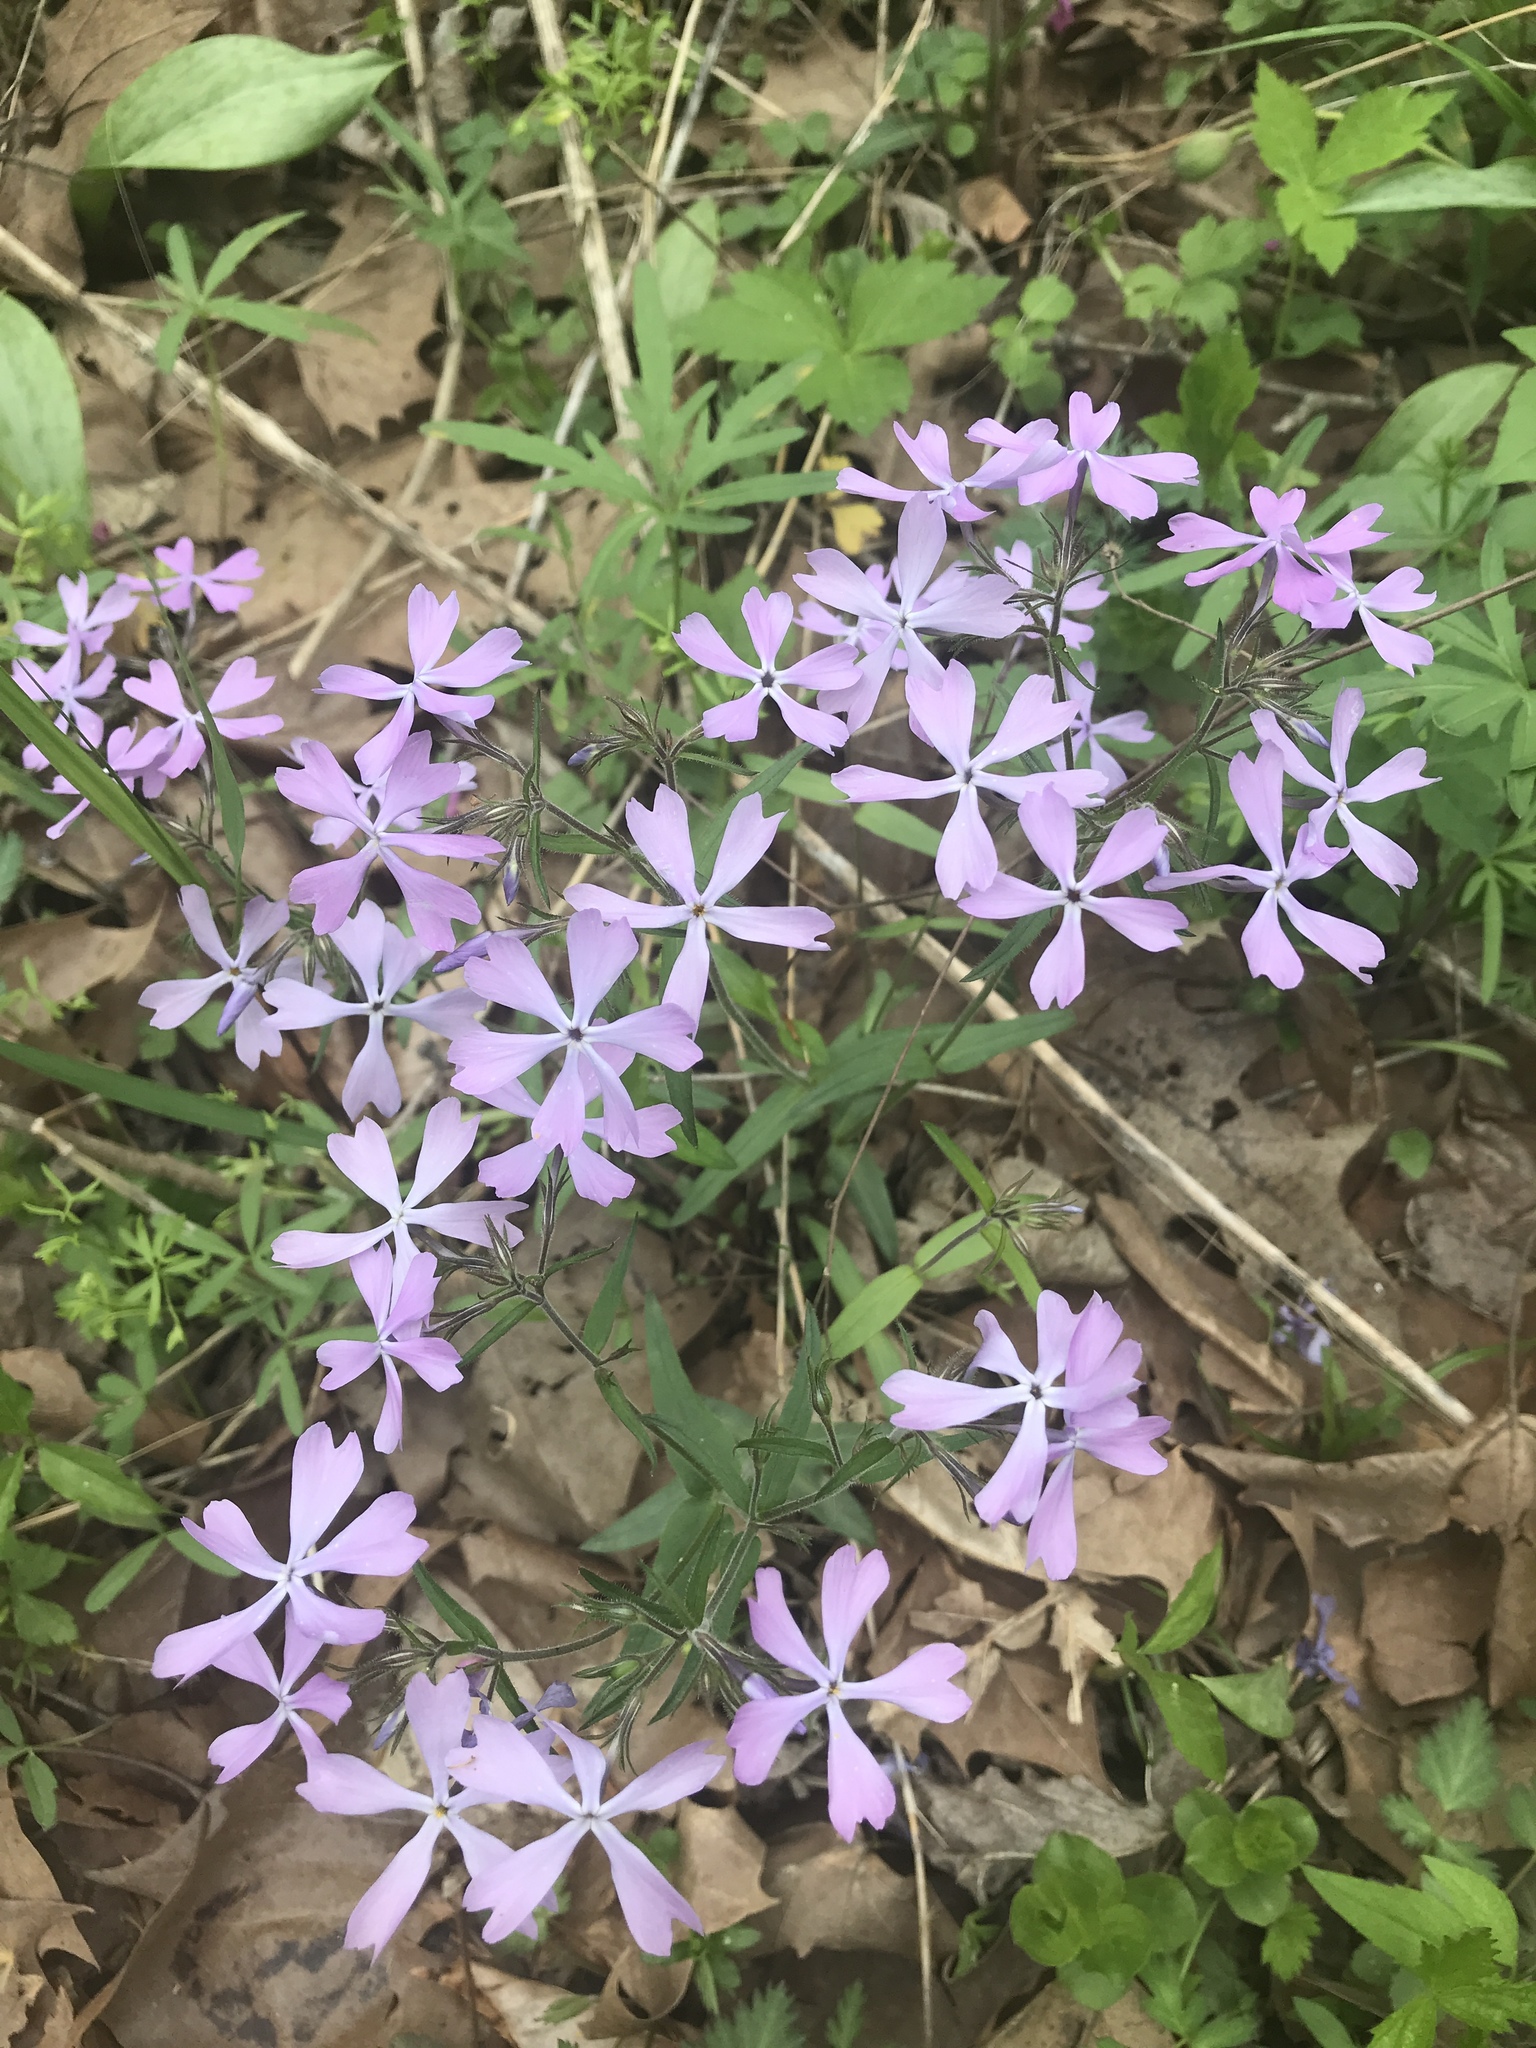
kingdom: Plantae
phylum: Tracheophyta
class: Magnoliopsida
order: Ericales
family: Polemoniaceae
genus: Phlox
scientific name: Phlox divaricata
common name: Blue phlox
